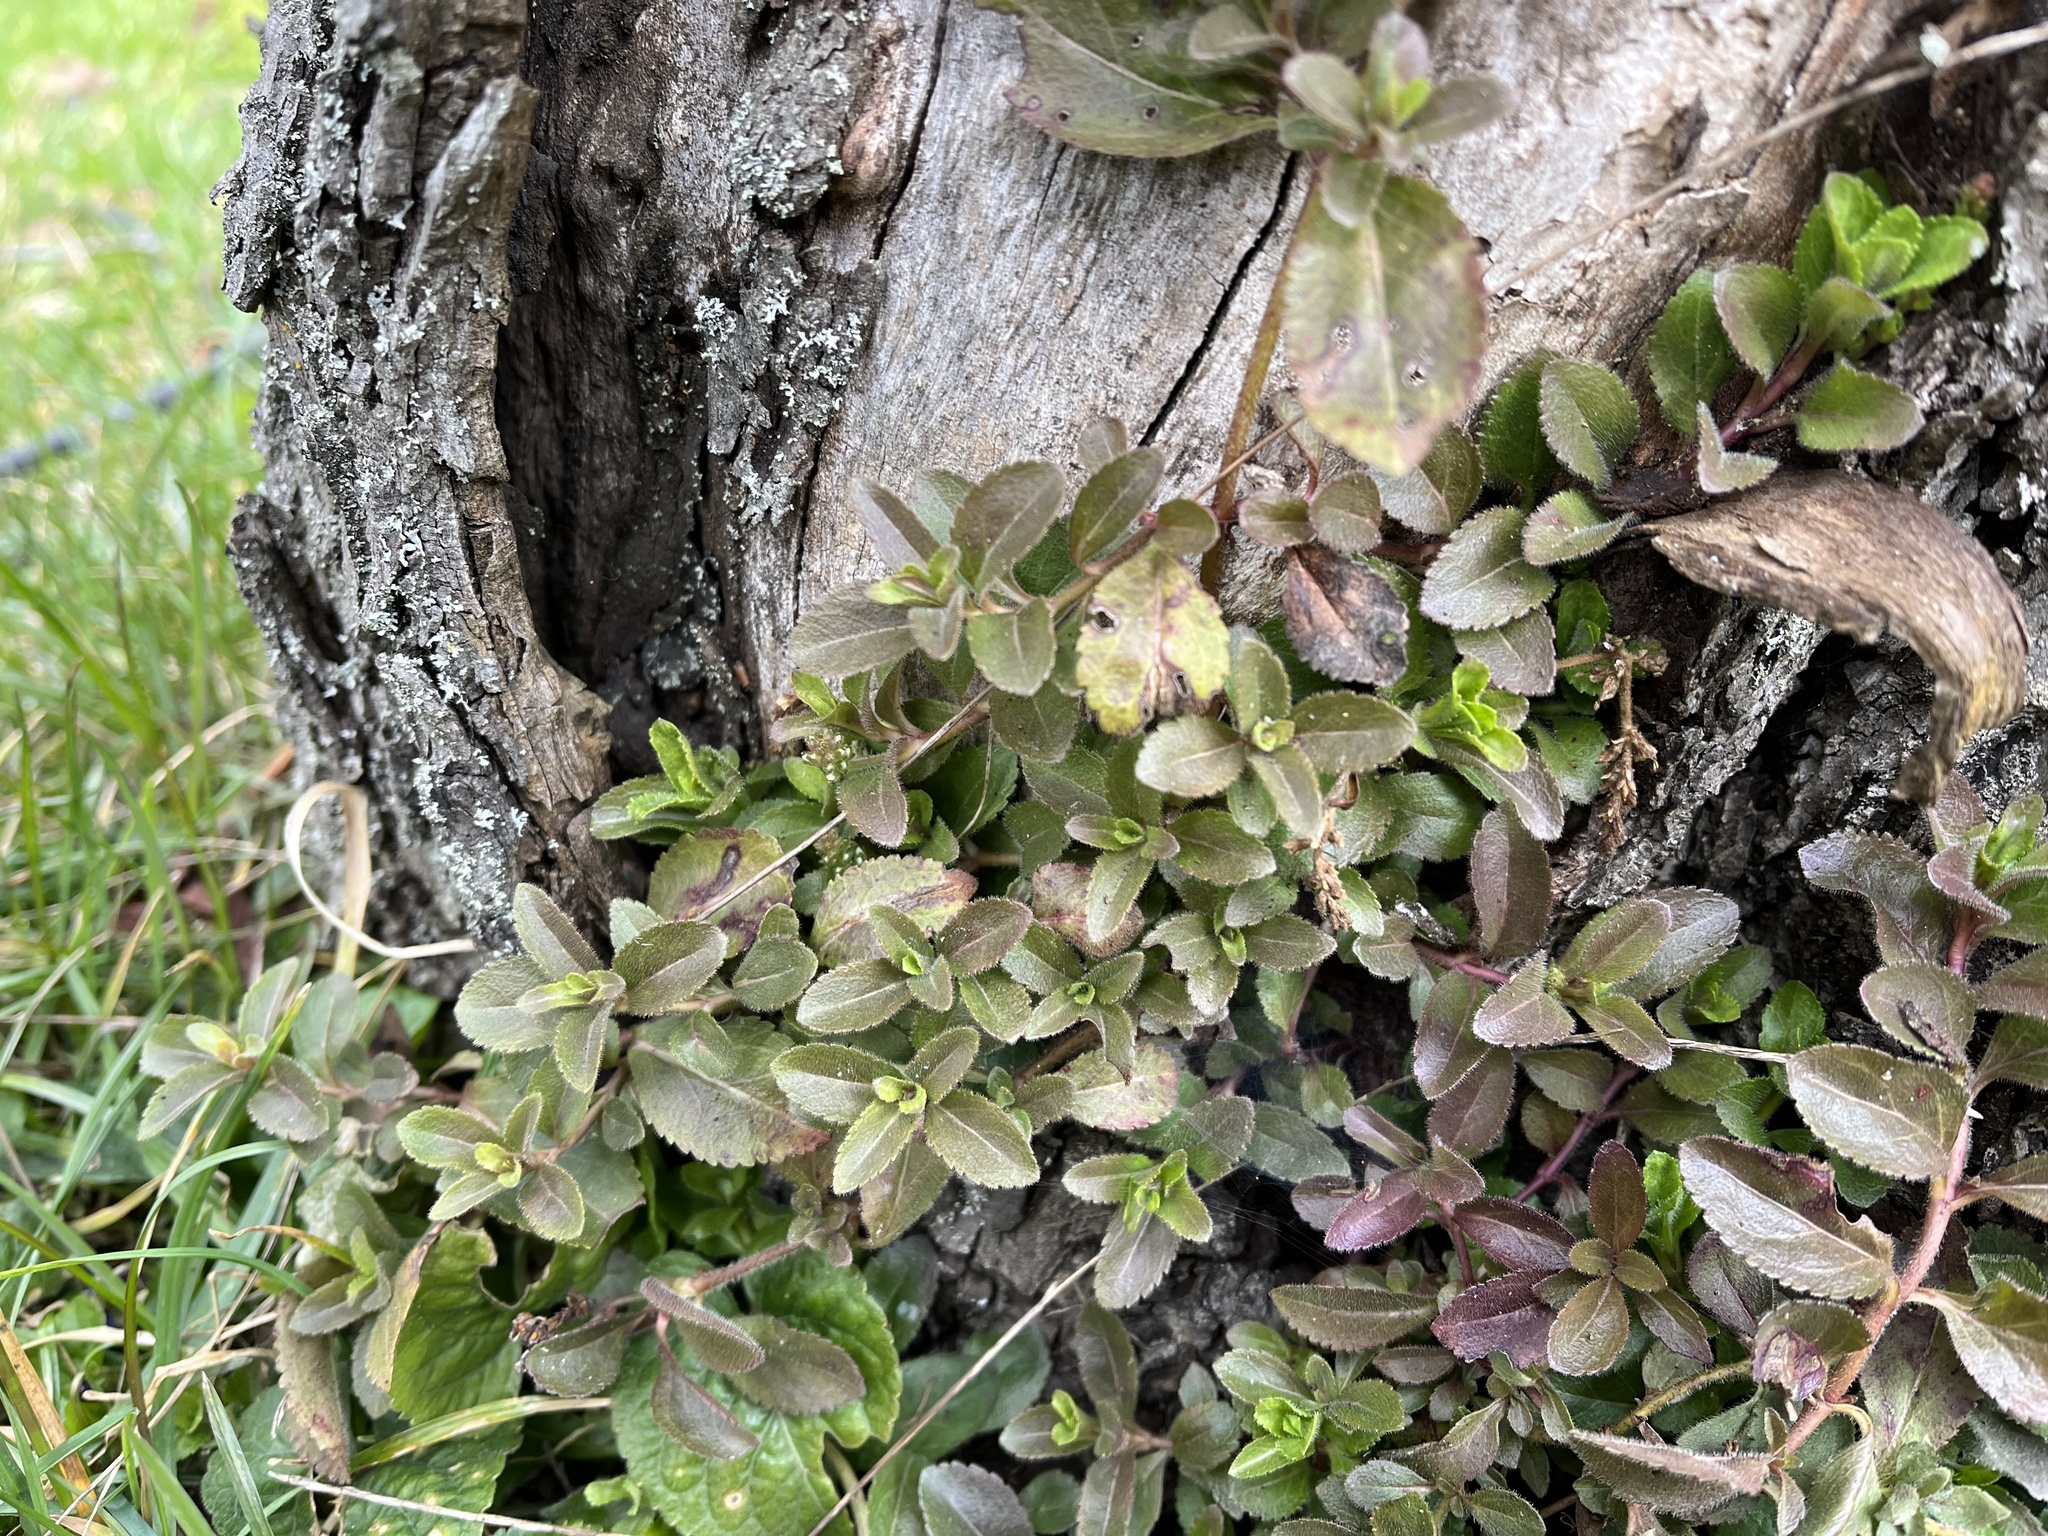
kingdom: Plantae
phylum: Tracheophyta
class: Magnoliopsida
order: Lamiales
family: Plantaginaceae
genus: Veronica
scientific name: Veronica officinalis
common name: Common speedwell
